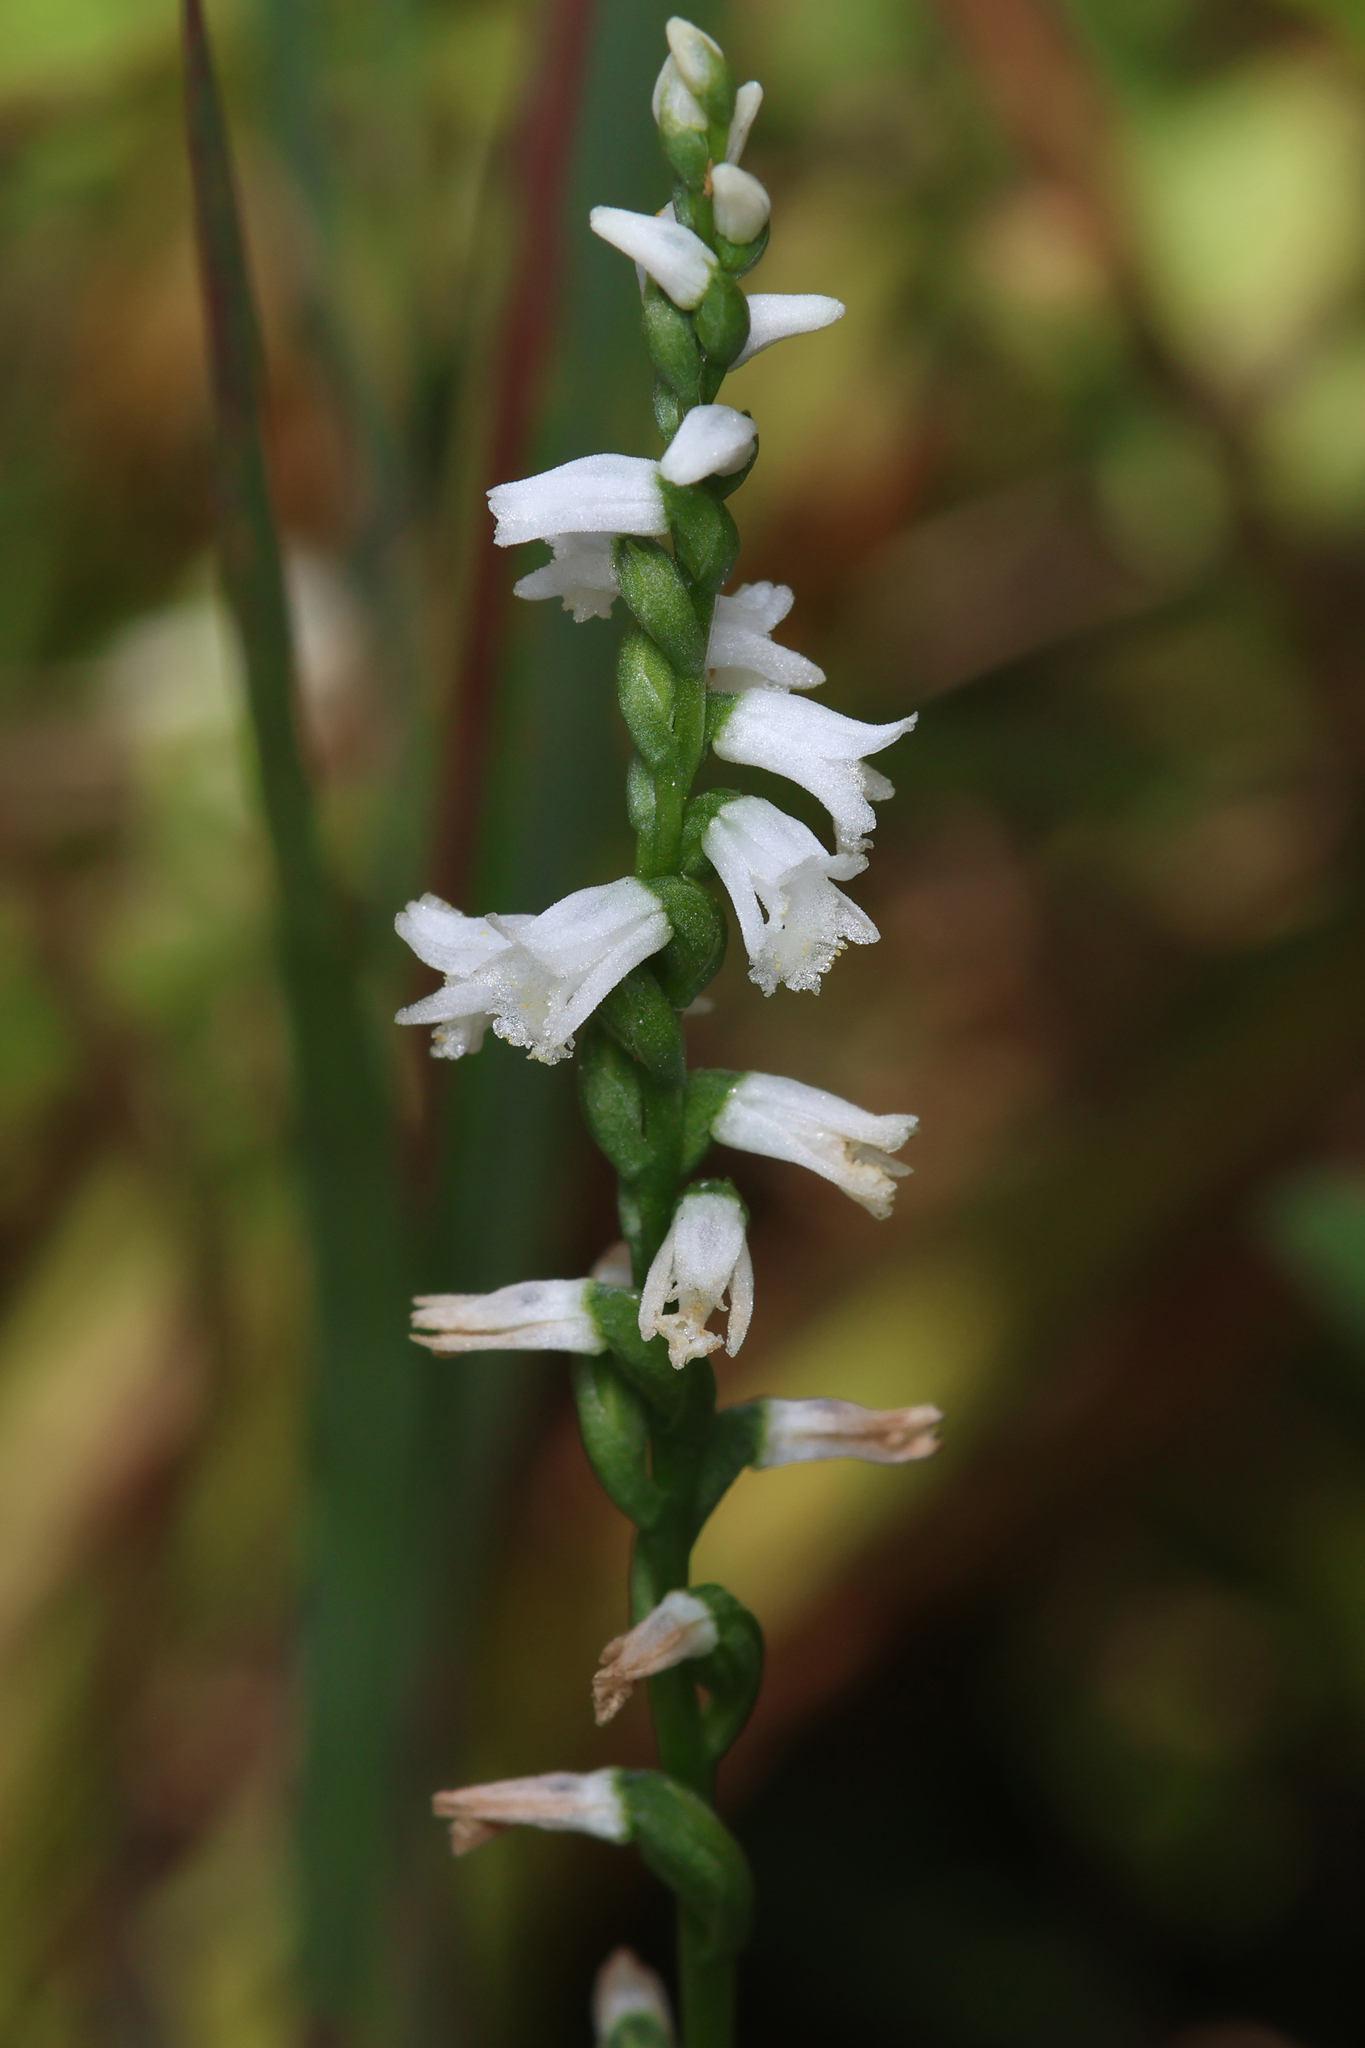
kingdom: Plantae
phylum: Tracheophyta
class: Liliopsida
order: Asparagales
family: Orchidaceae
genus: Spiranthes
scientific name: Spiranthes tuberosa
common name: Little ladies'-tresses
